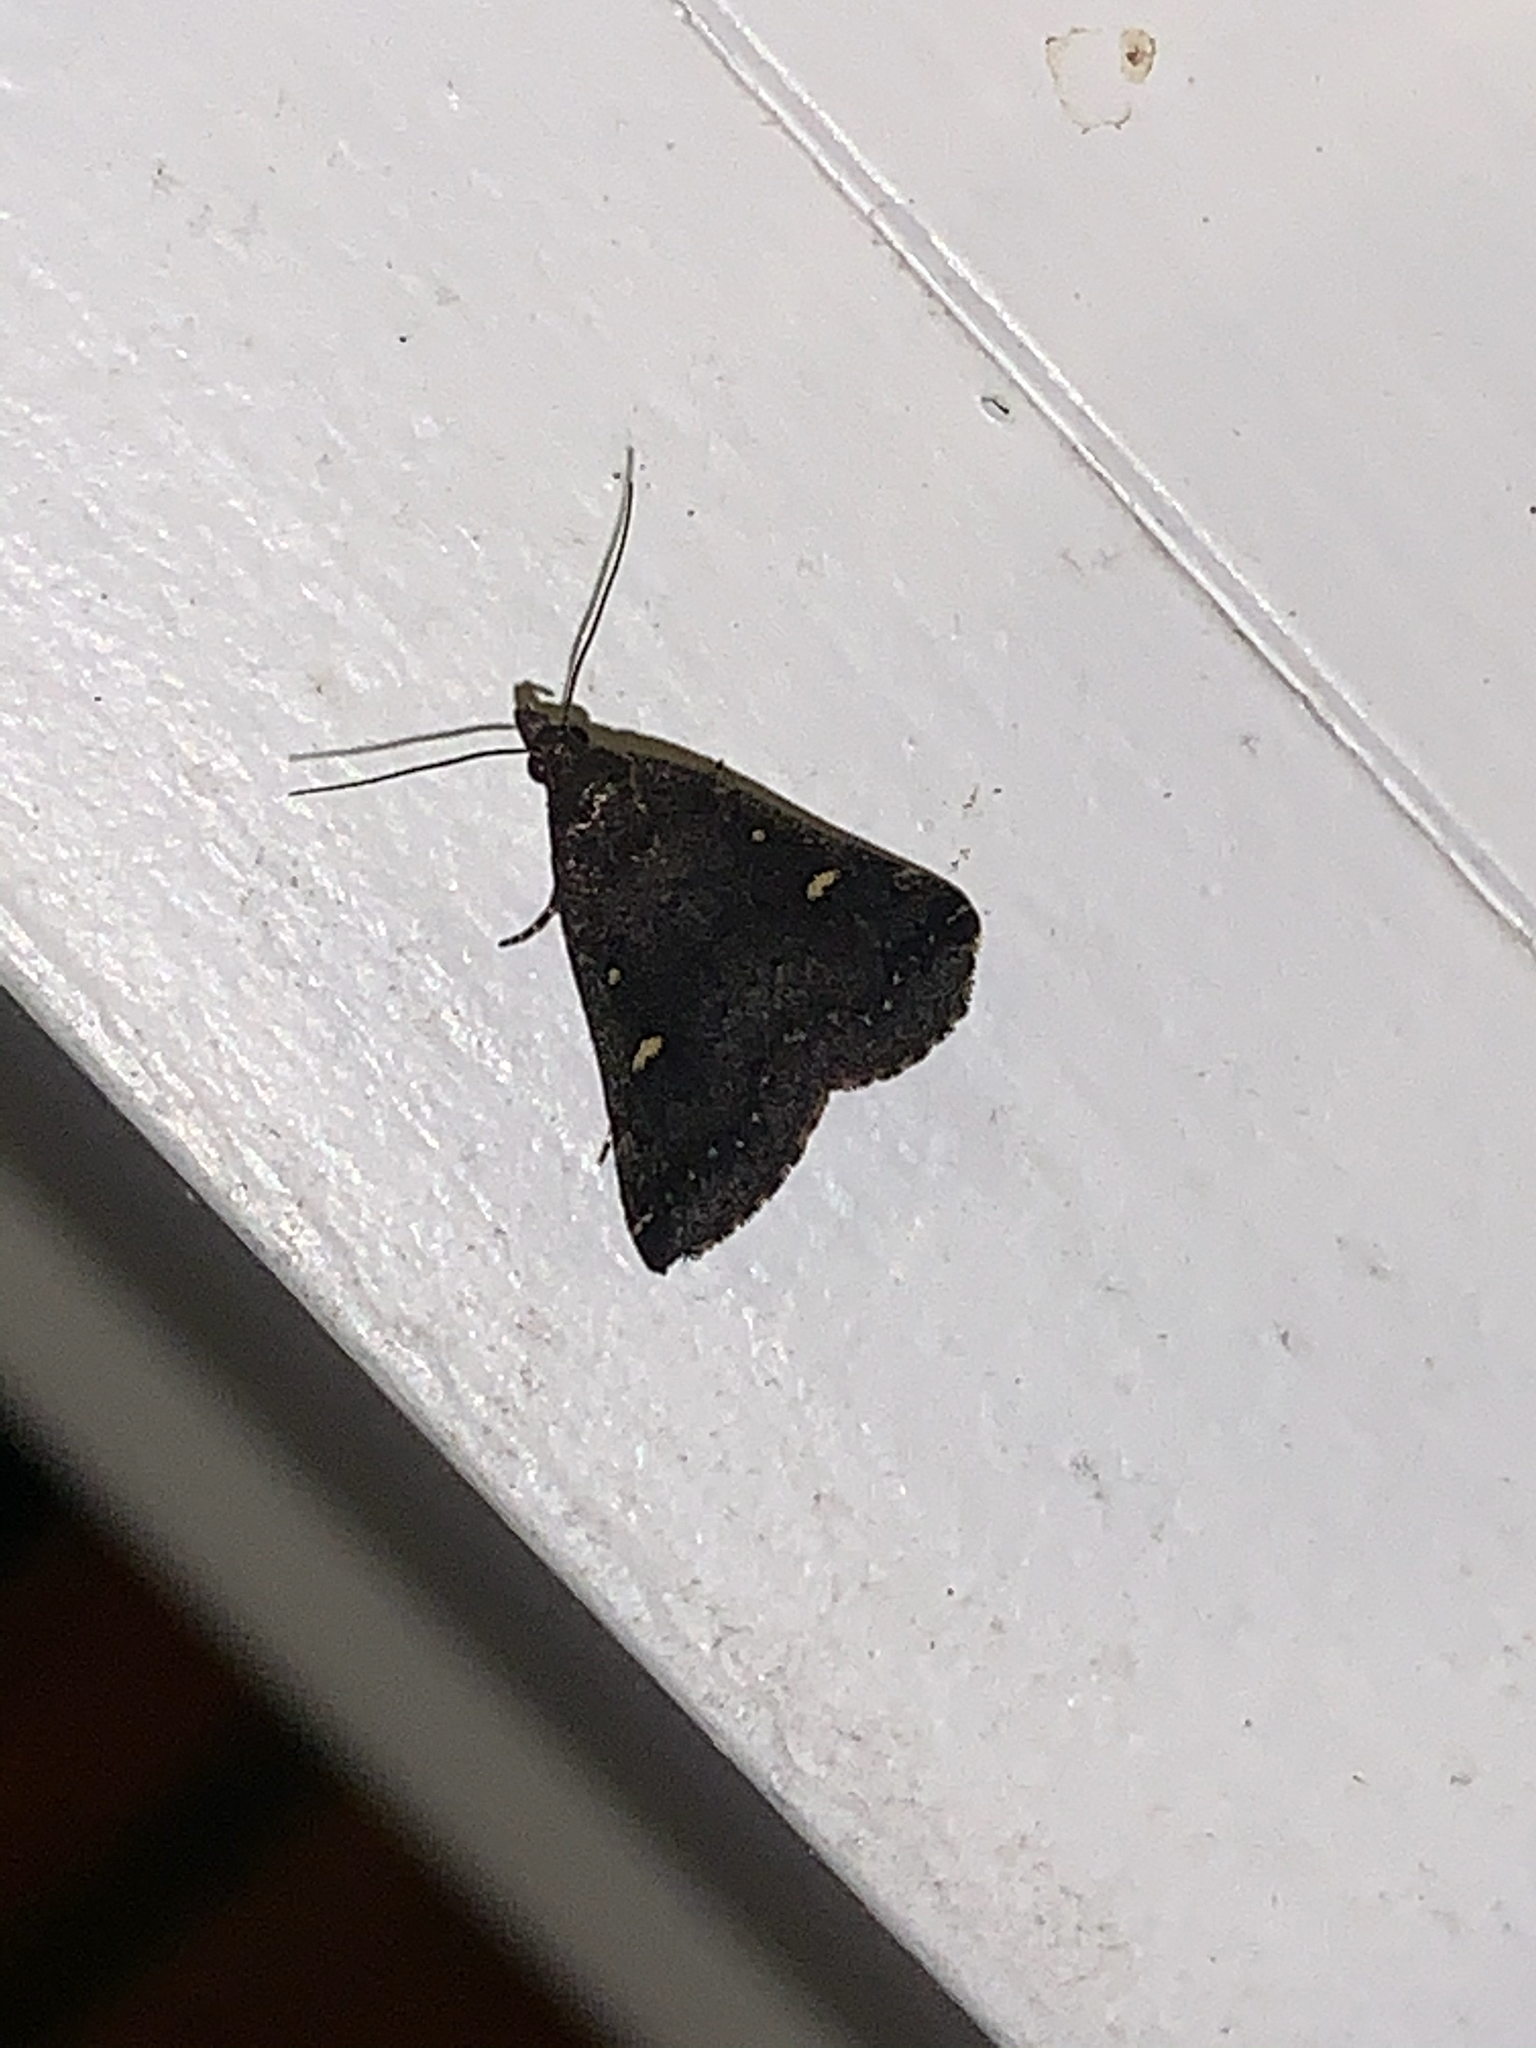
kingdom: Animalia
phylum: Arthropoda
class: Insecta
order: Lepidoptera
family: Erebidae
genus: Tetanolita
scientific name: Tetanolita mynesalis
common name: Smoky tetanolita moth
